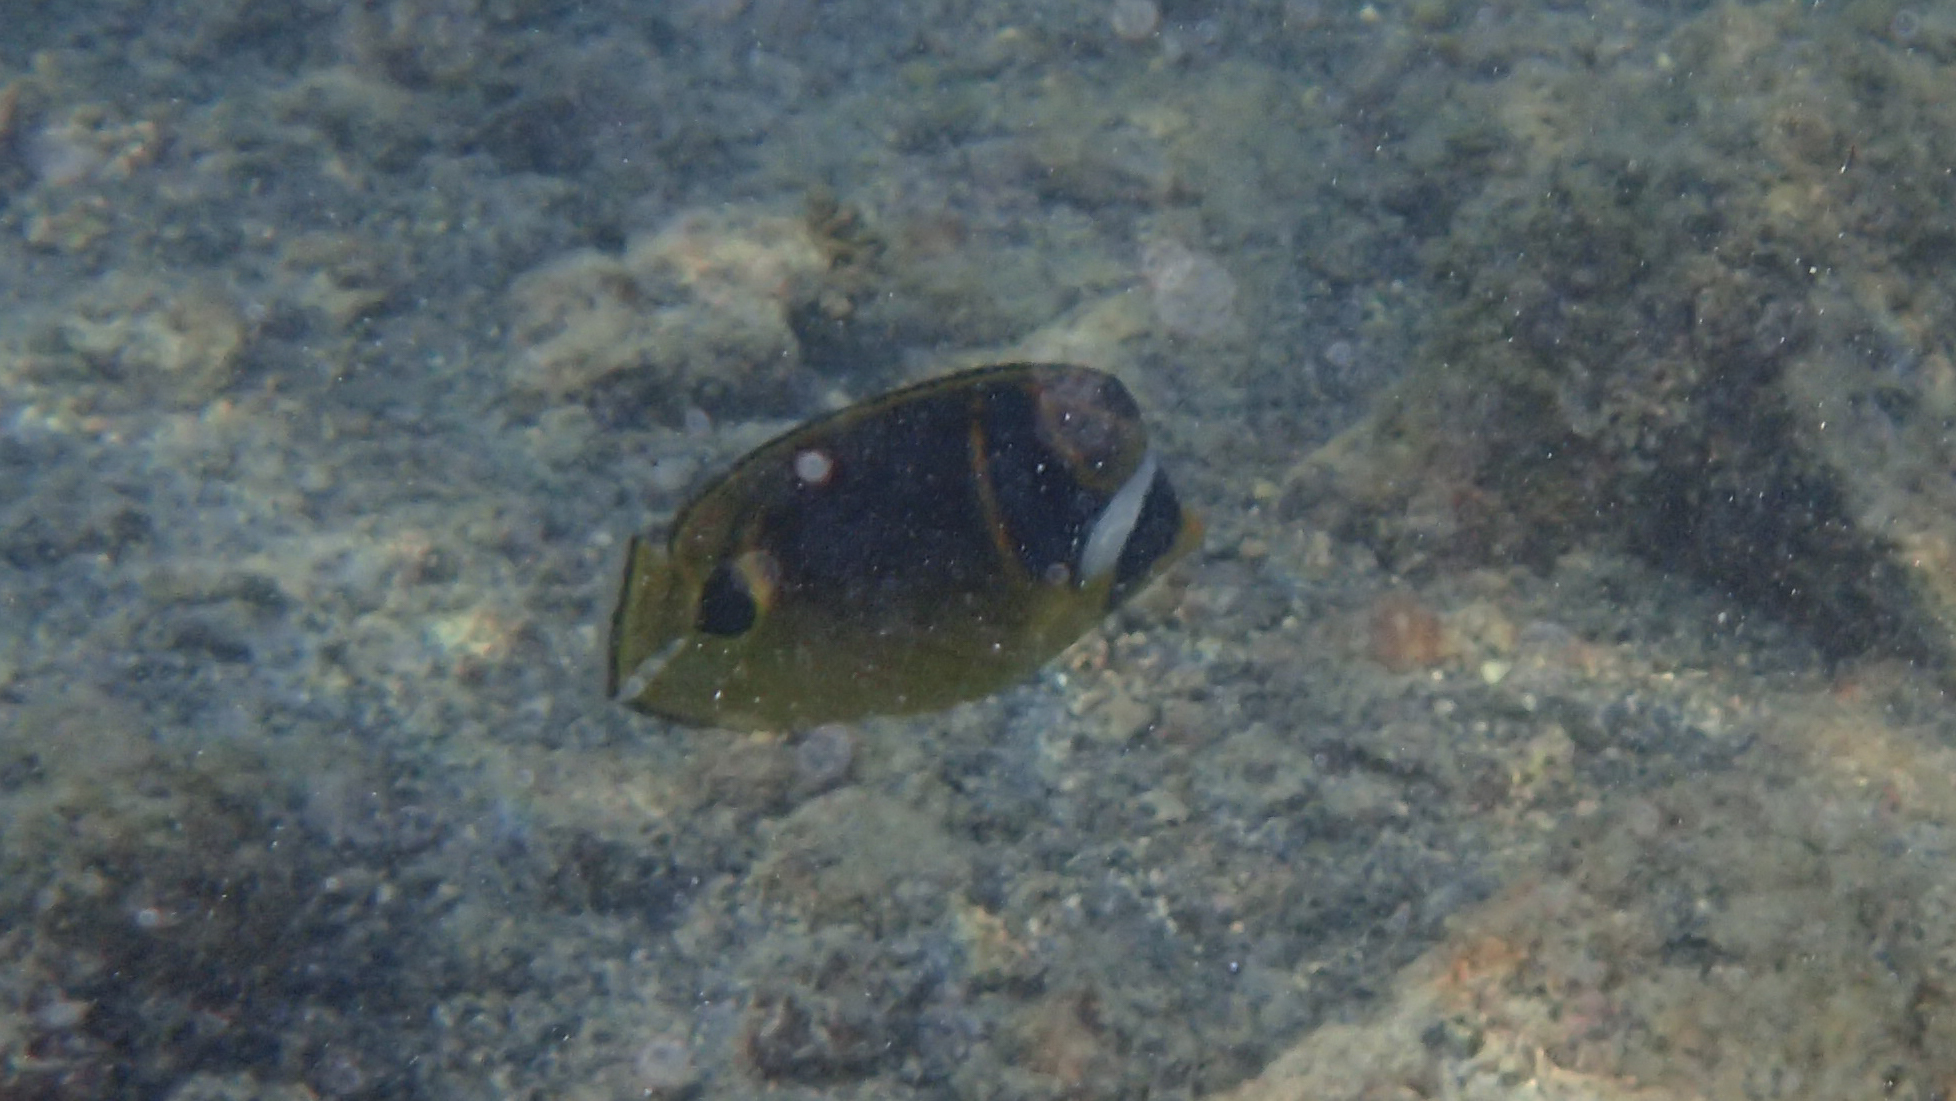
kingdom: Animalia
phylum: Chordata
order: Perciformes
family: Chaetodontidae
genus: Chaetodon
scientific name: Chaetodon lunula
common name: Raccoon butterflyfish
